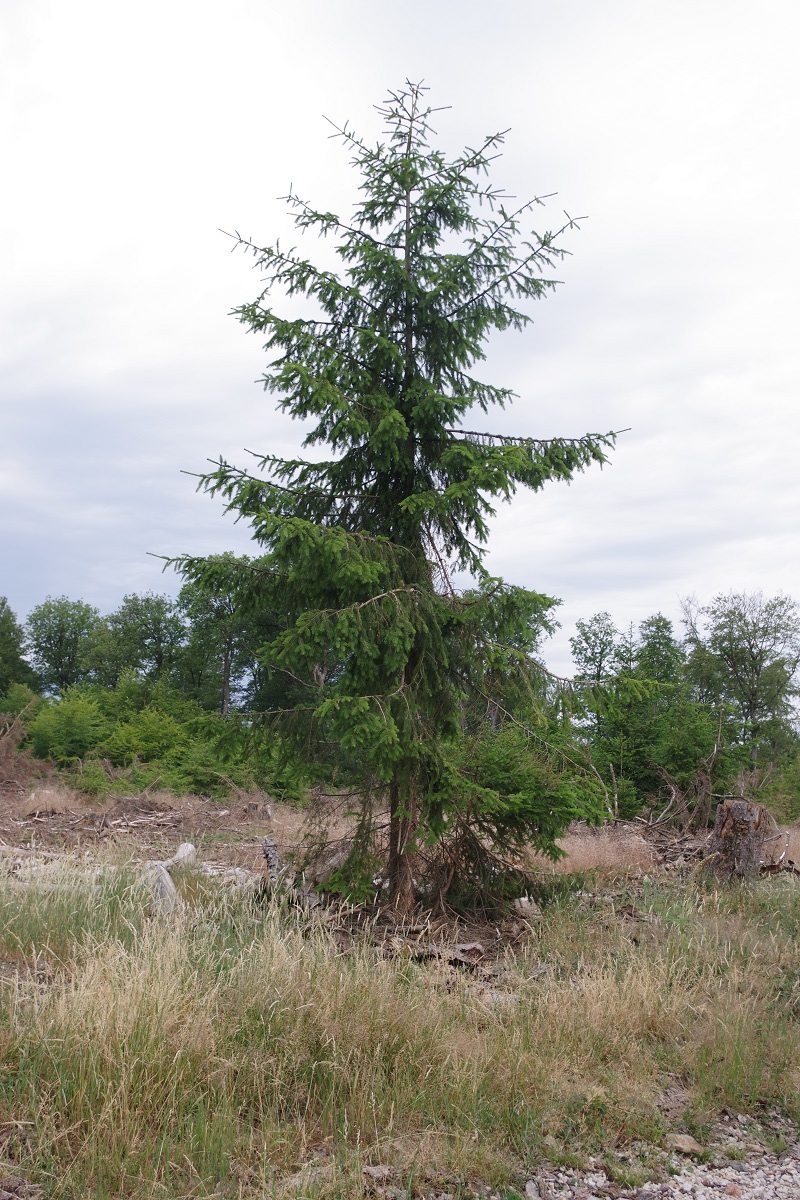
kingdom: Plantae
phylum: Tracheophyta
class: Pinopsida
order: Pinales
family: Pinaceae
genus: Picea
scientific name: Picea abies
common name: Norway spruce
